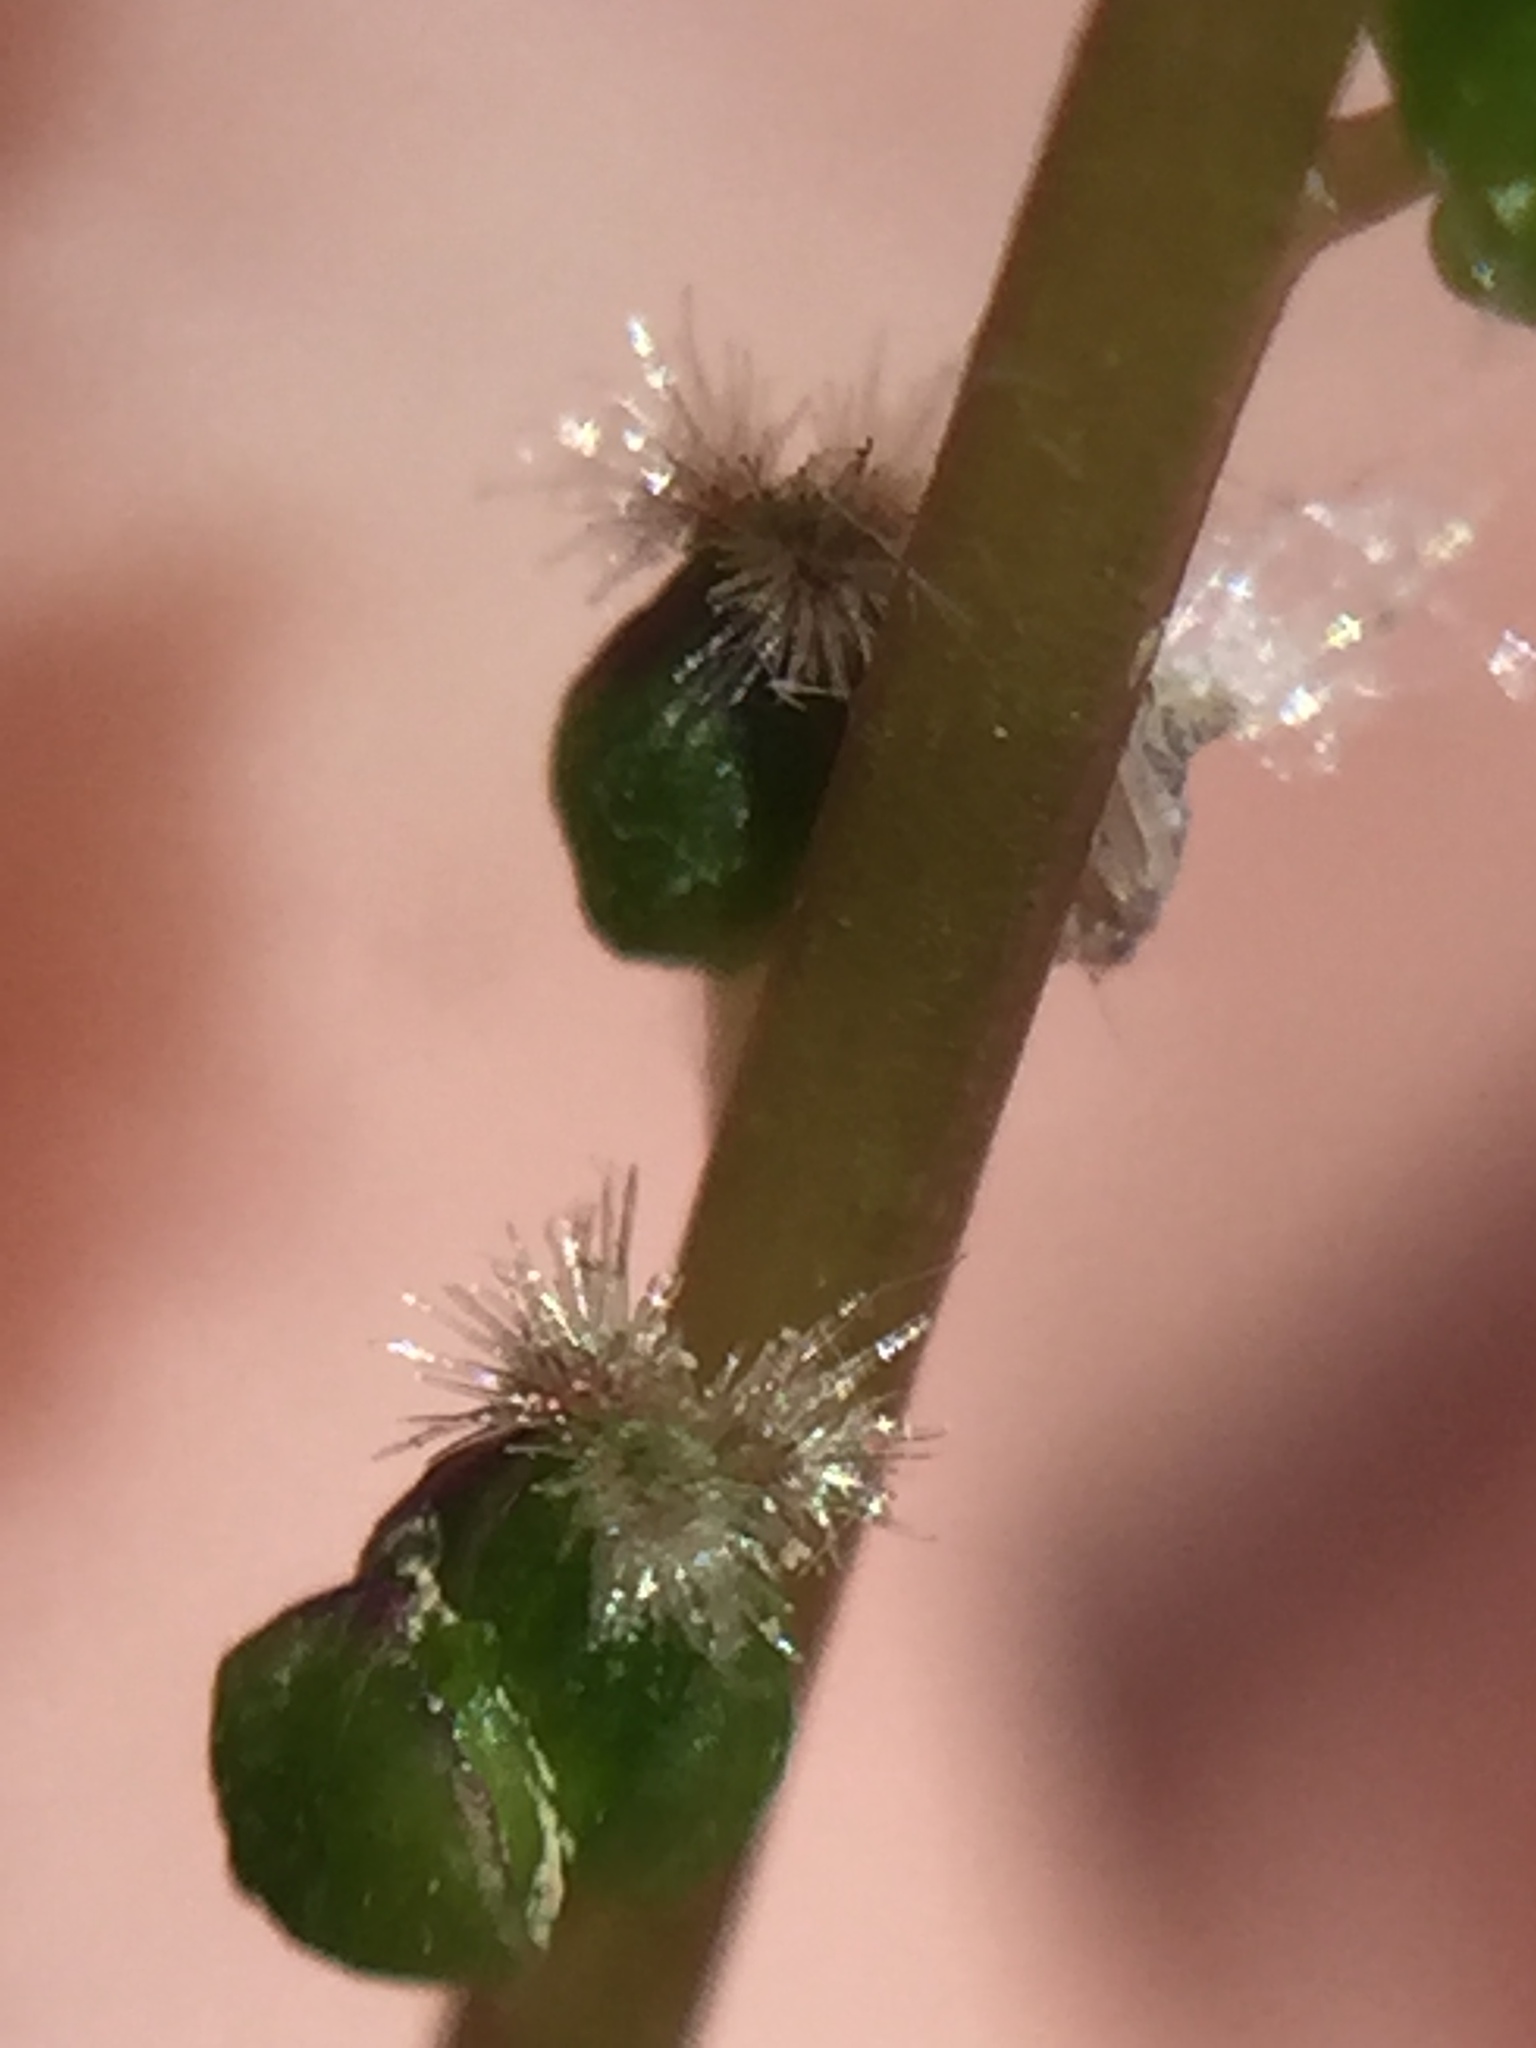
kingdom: Plantae
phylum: Tracheophyta
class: Liliopsida
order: Alismatales
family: Juncaginaceae
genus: Triglochin
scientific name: Triglochin striata
